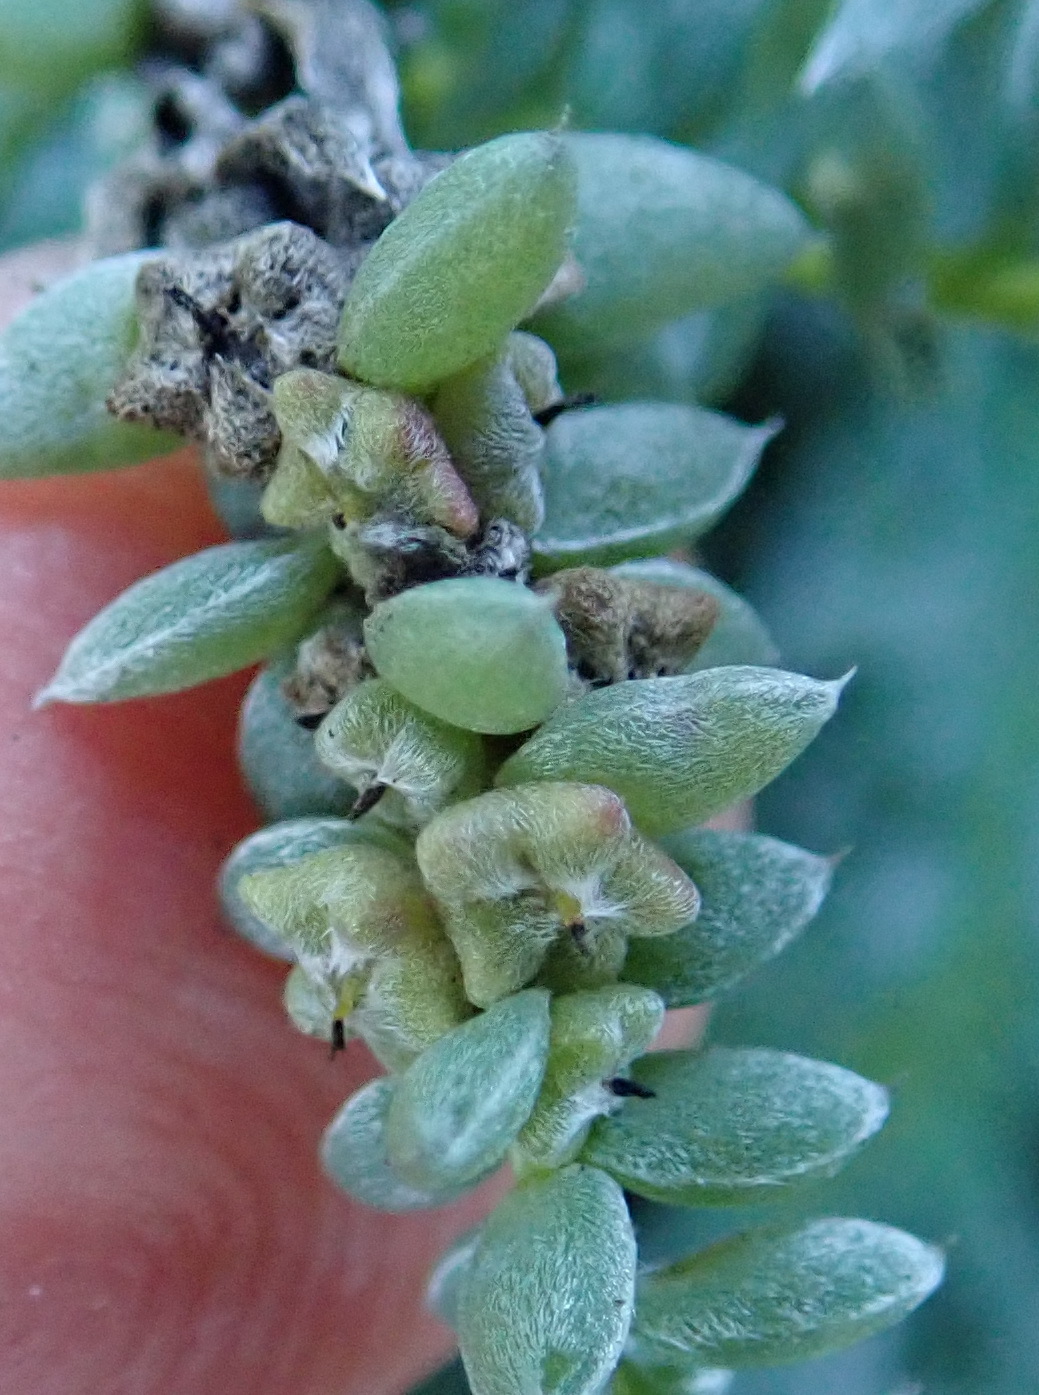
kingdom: Plantae
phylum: Tracheophyta
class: Magnoliopsida
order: Caryophyllales
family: Amaranthaceae
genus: Chenolea
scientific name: Chenolea diffusa
